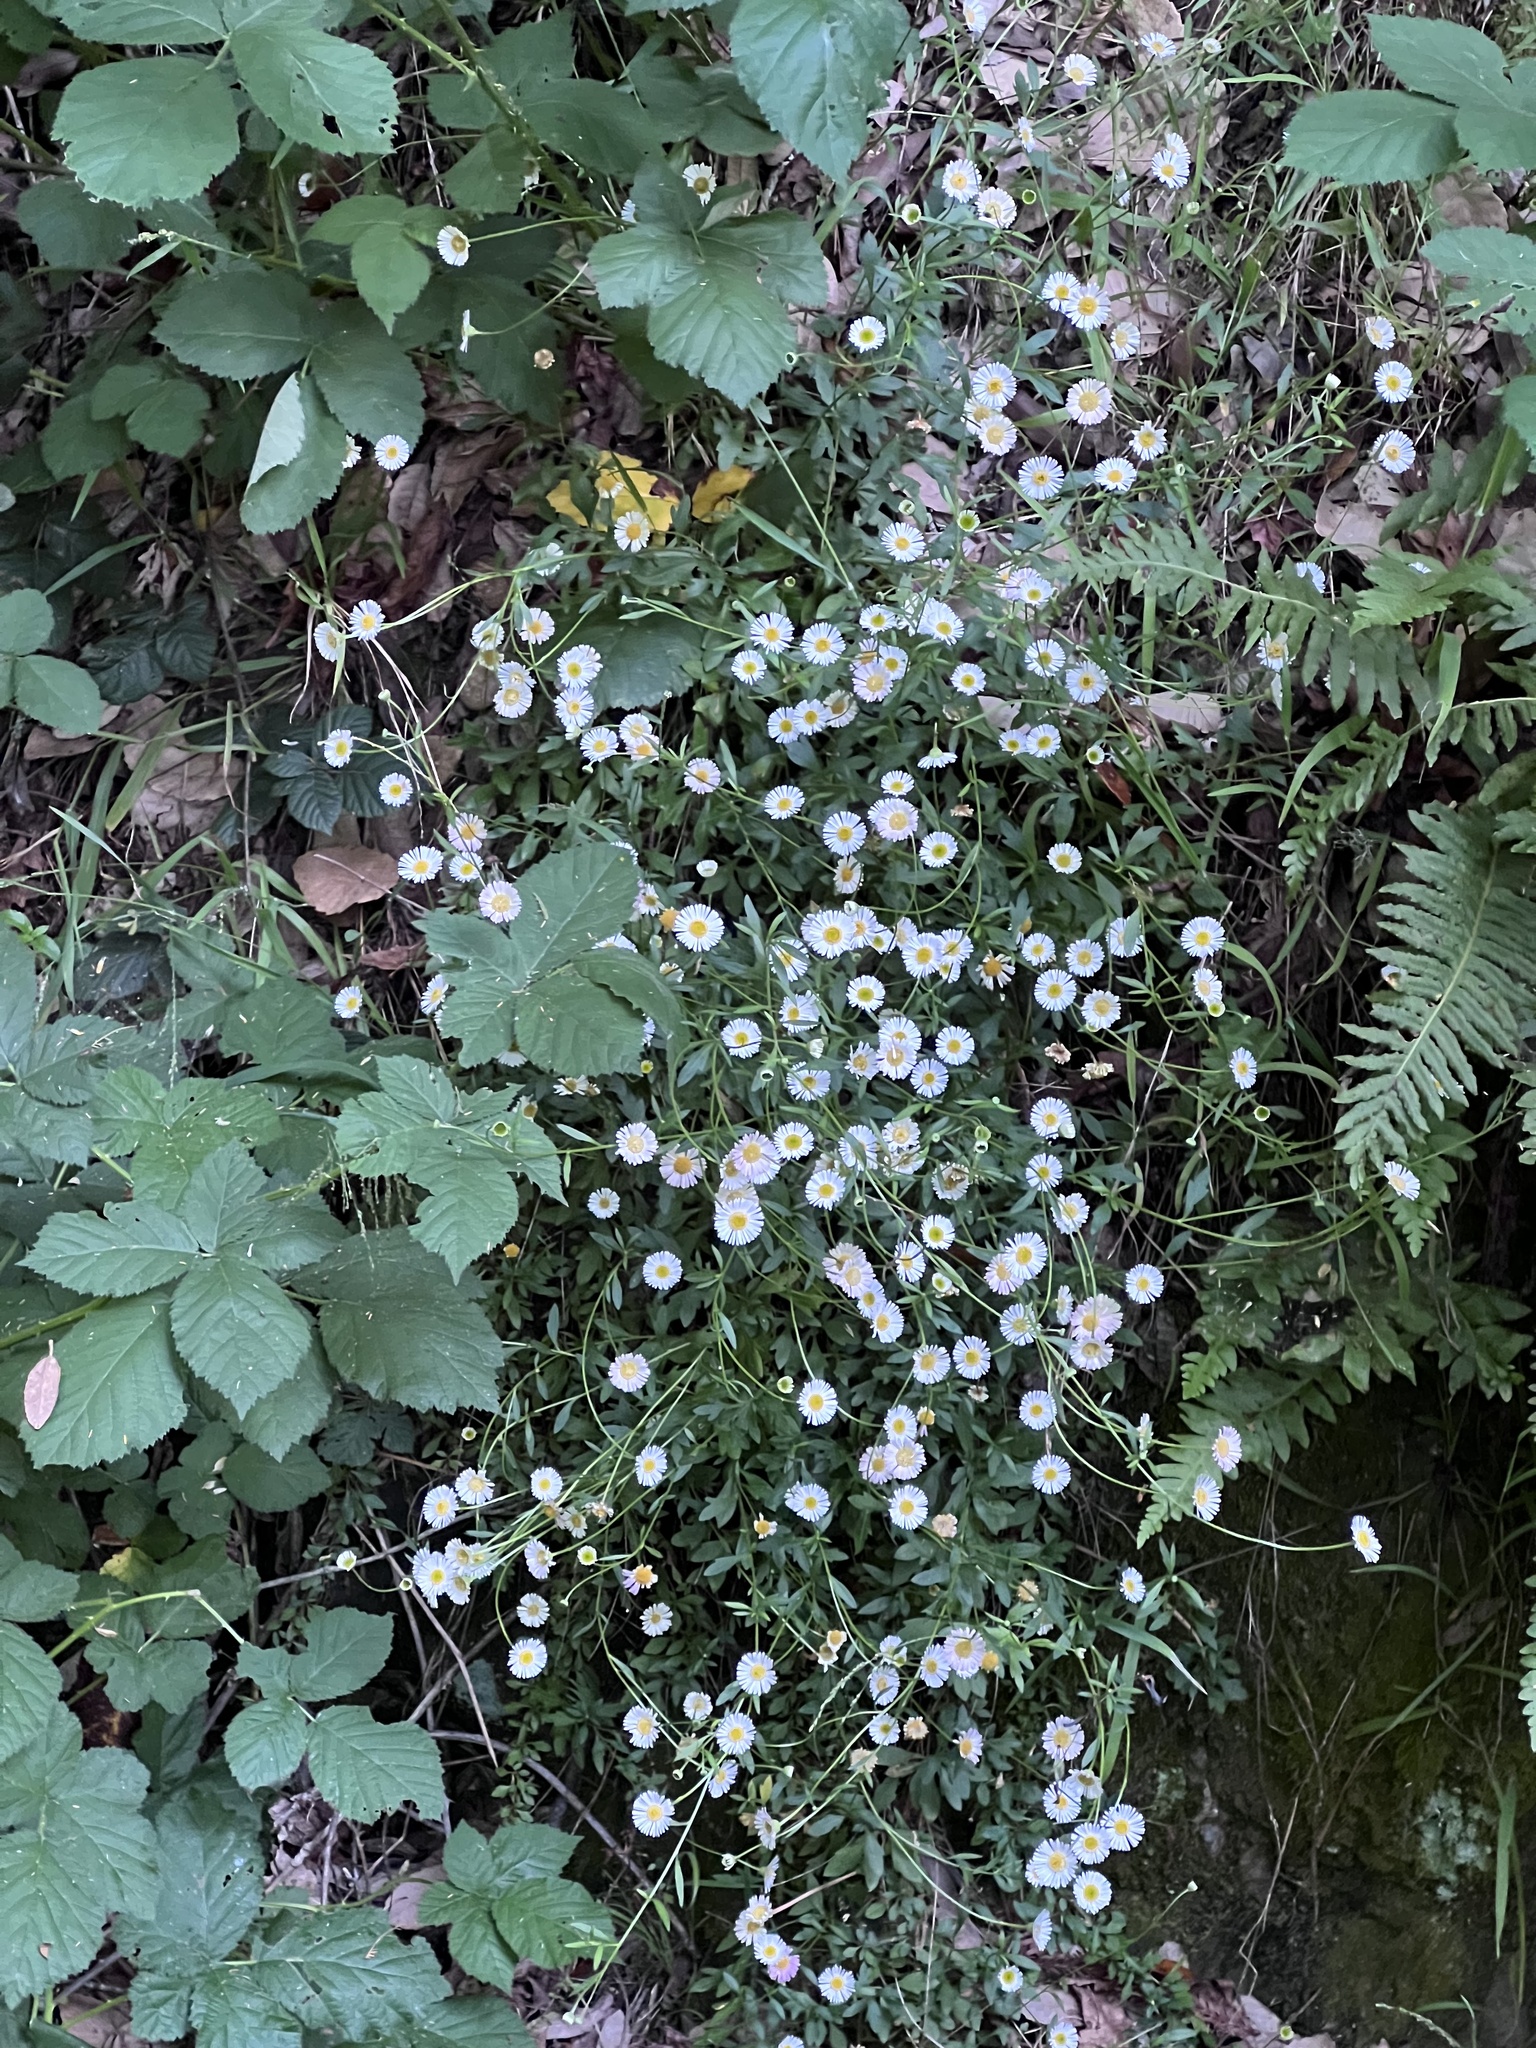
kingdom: Plantae
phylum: Tracheophyta
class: Magnoliopsida
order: Asterales
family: Asteraceae
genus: Erigeron
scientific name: Erigeron karvinskianus
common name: Mexican fleabane
